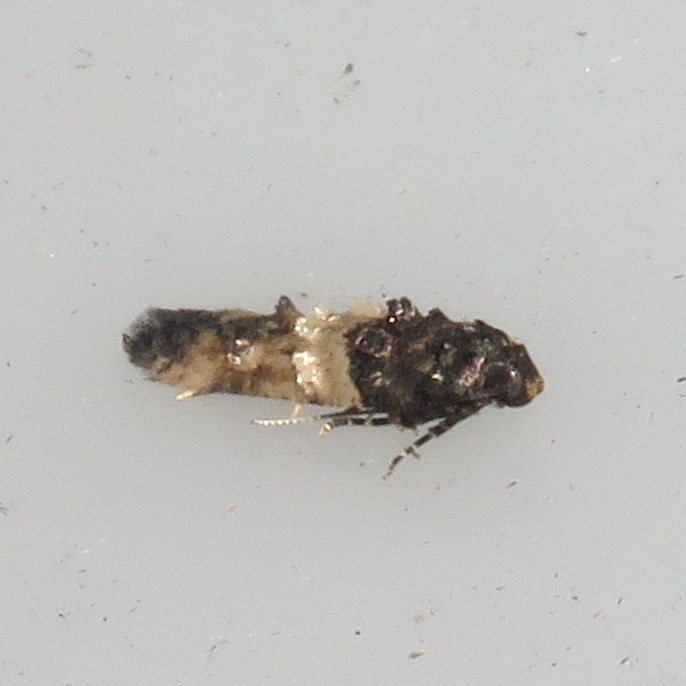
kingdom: Animalia
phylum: Arthropoda
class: Insecta
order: Lepidoptera
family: Cosmopterigidae
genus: Walshia
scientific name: Walshia miscecolorella
